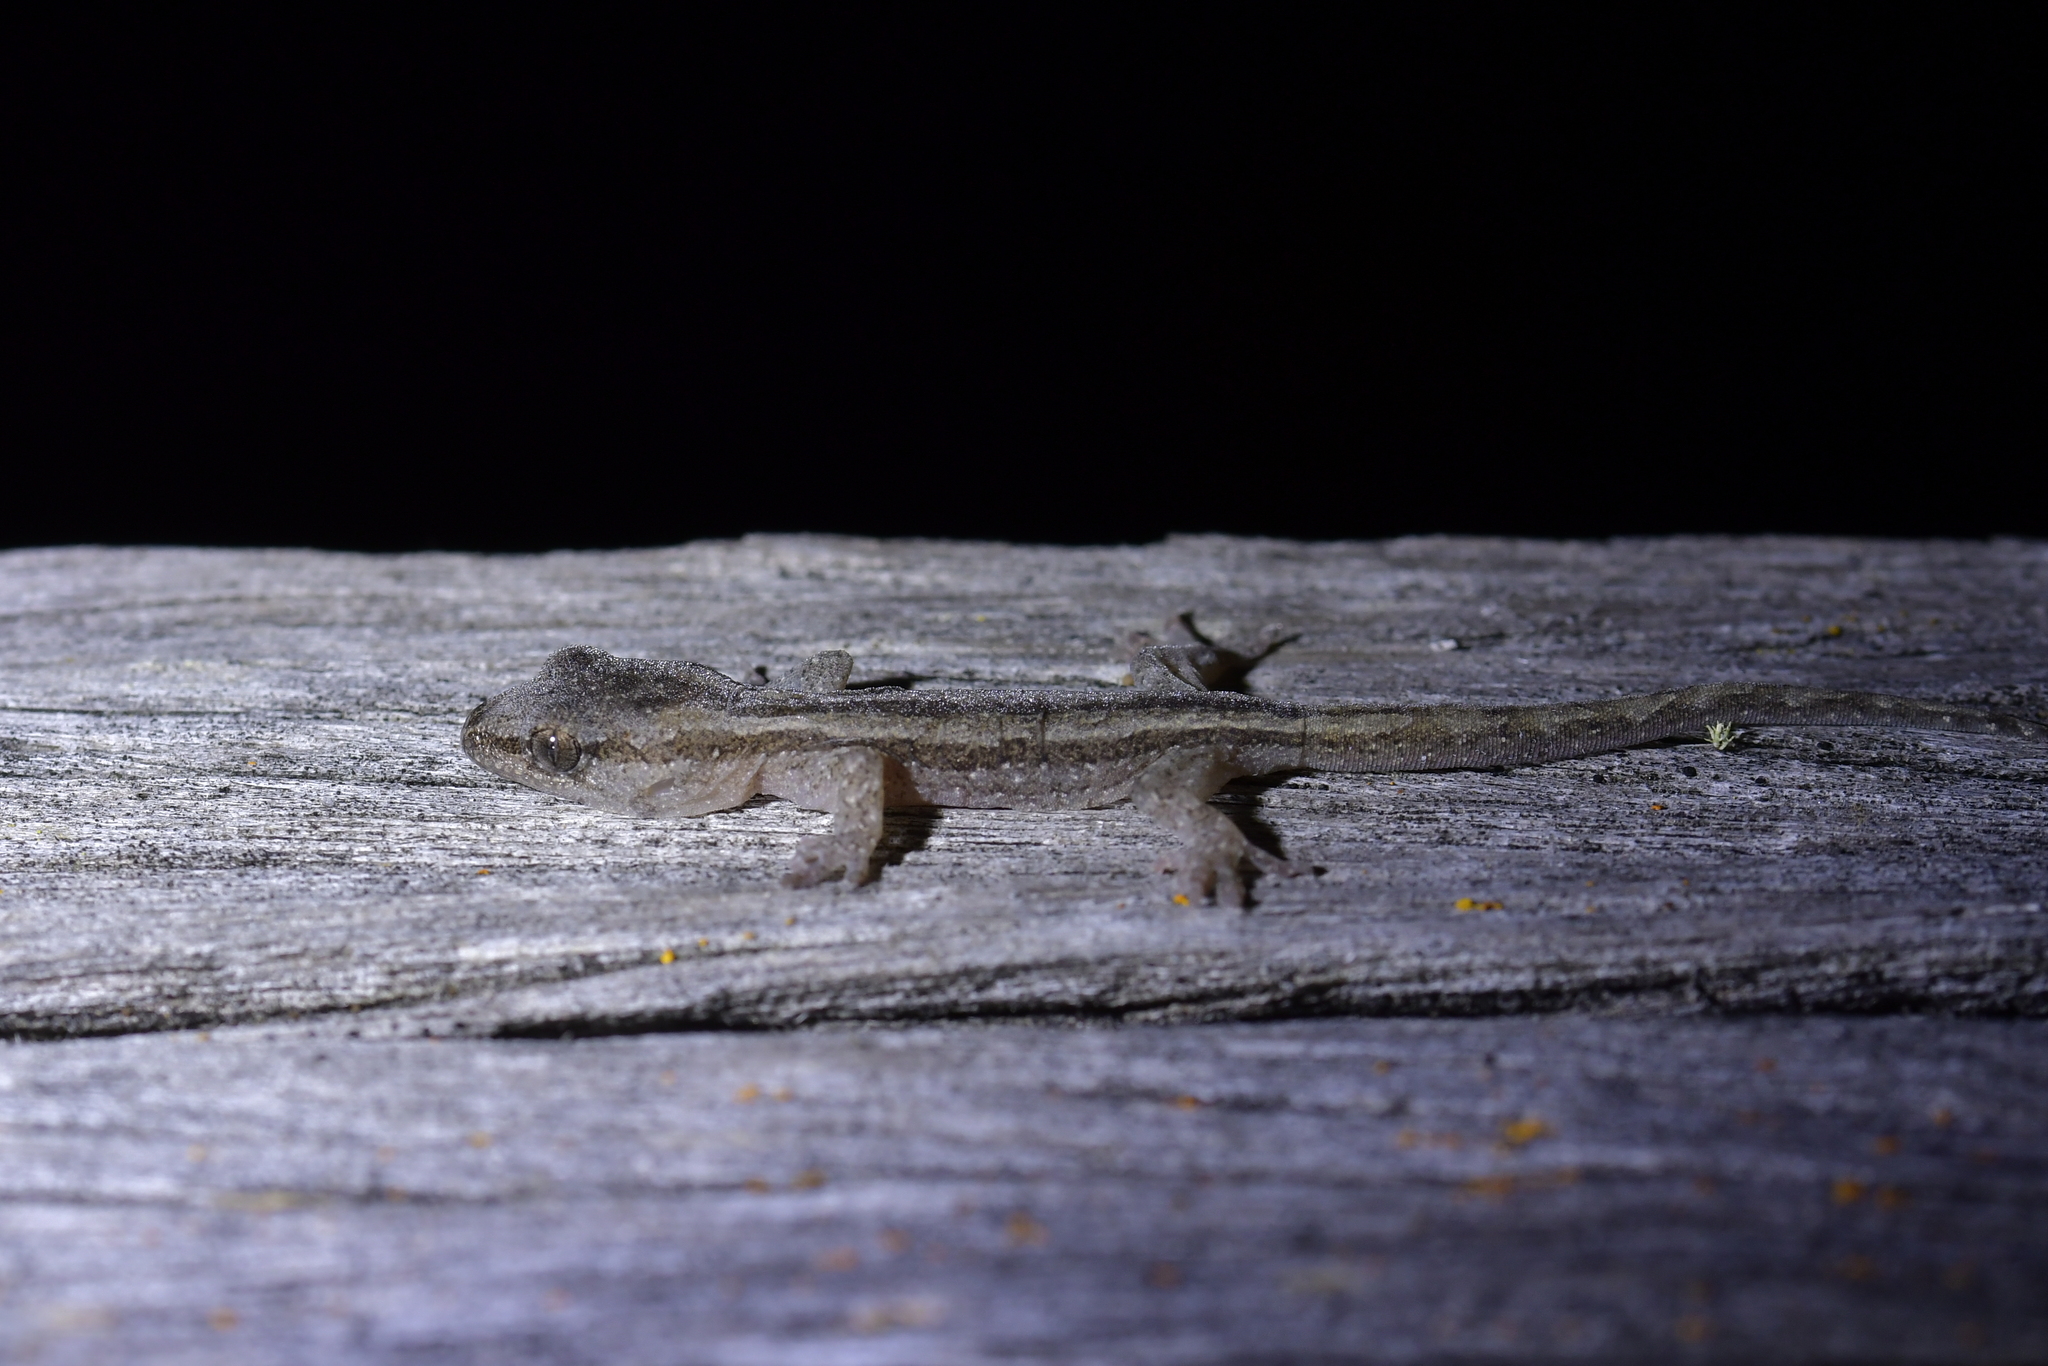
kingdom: Animalia
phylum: Chordata
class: Squamata
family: Diplodactylidae
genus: Woodworthia
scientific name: Woodworthia maculata
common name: Raukawa gecko
